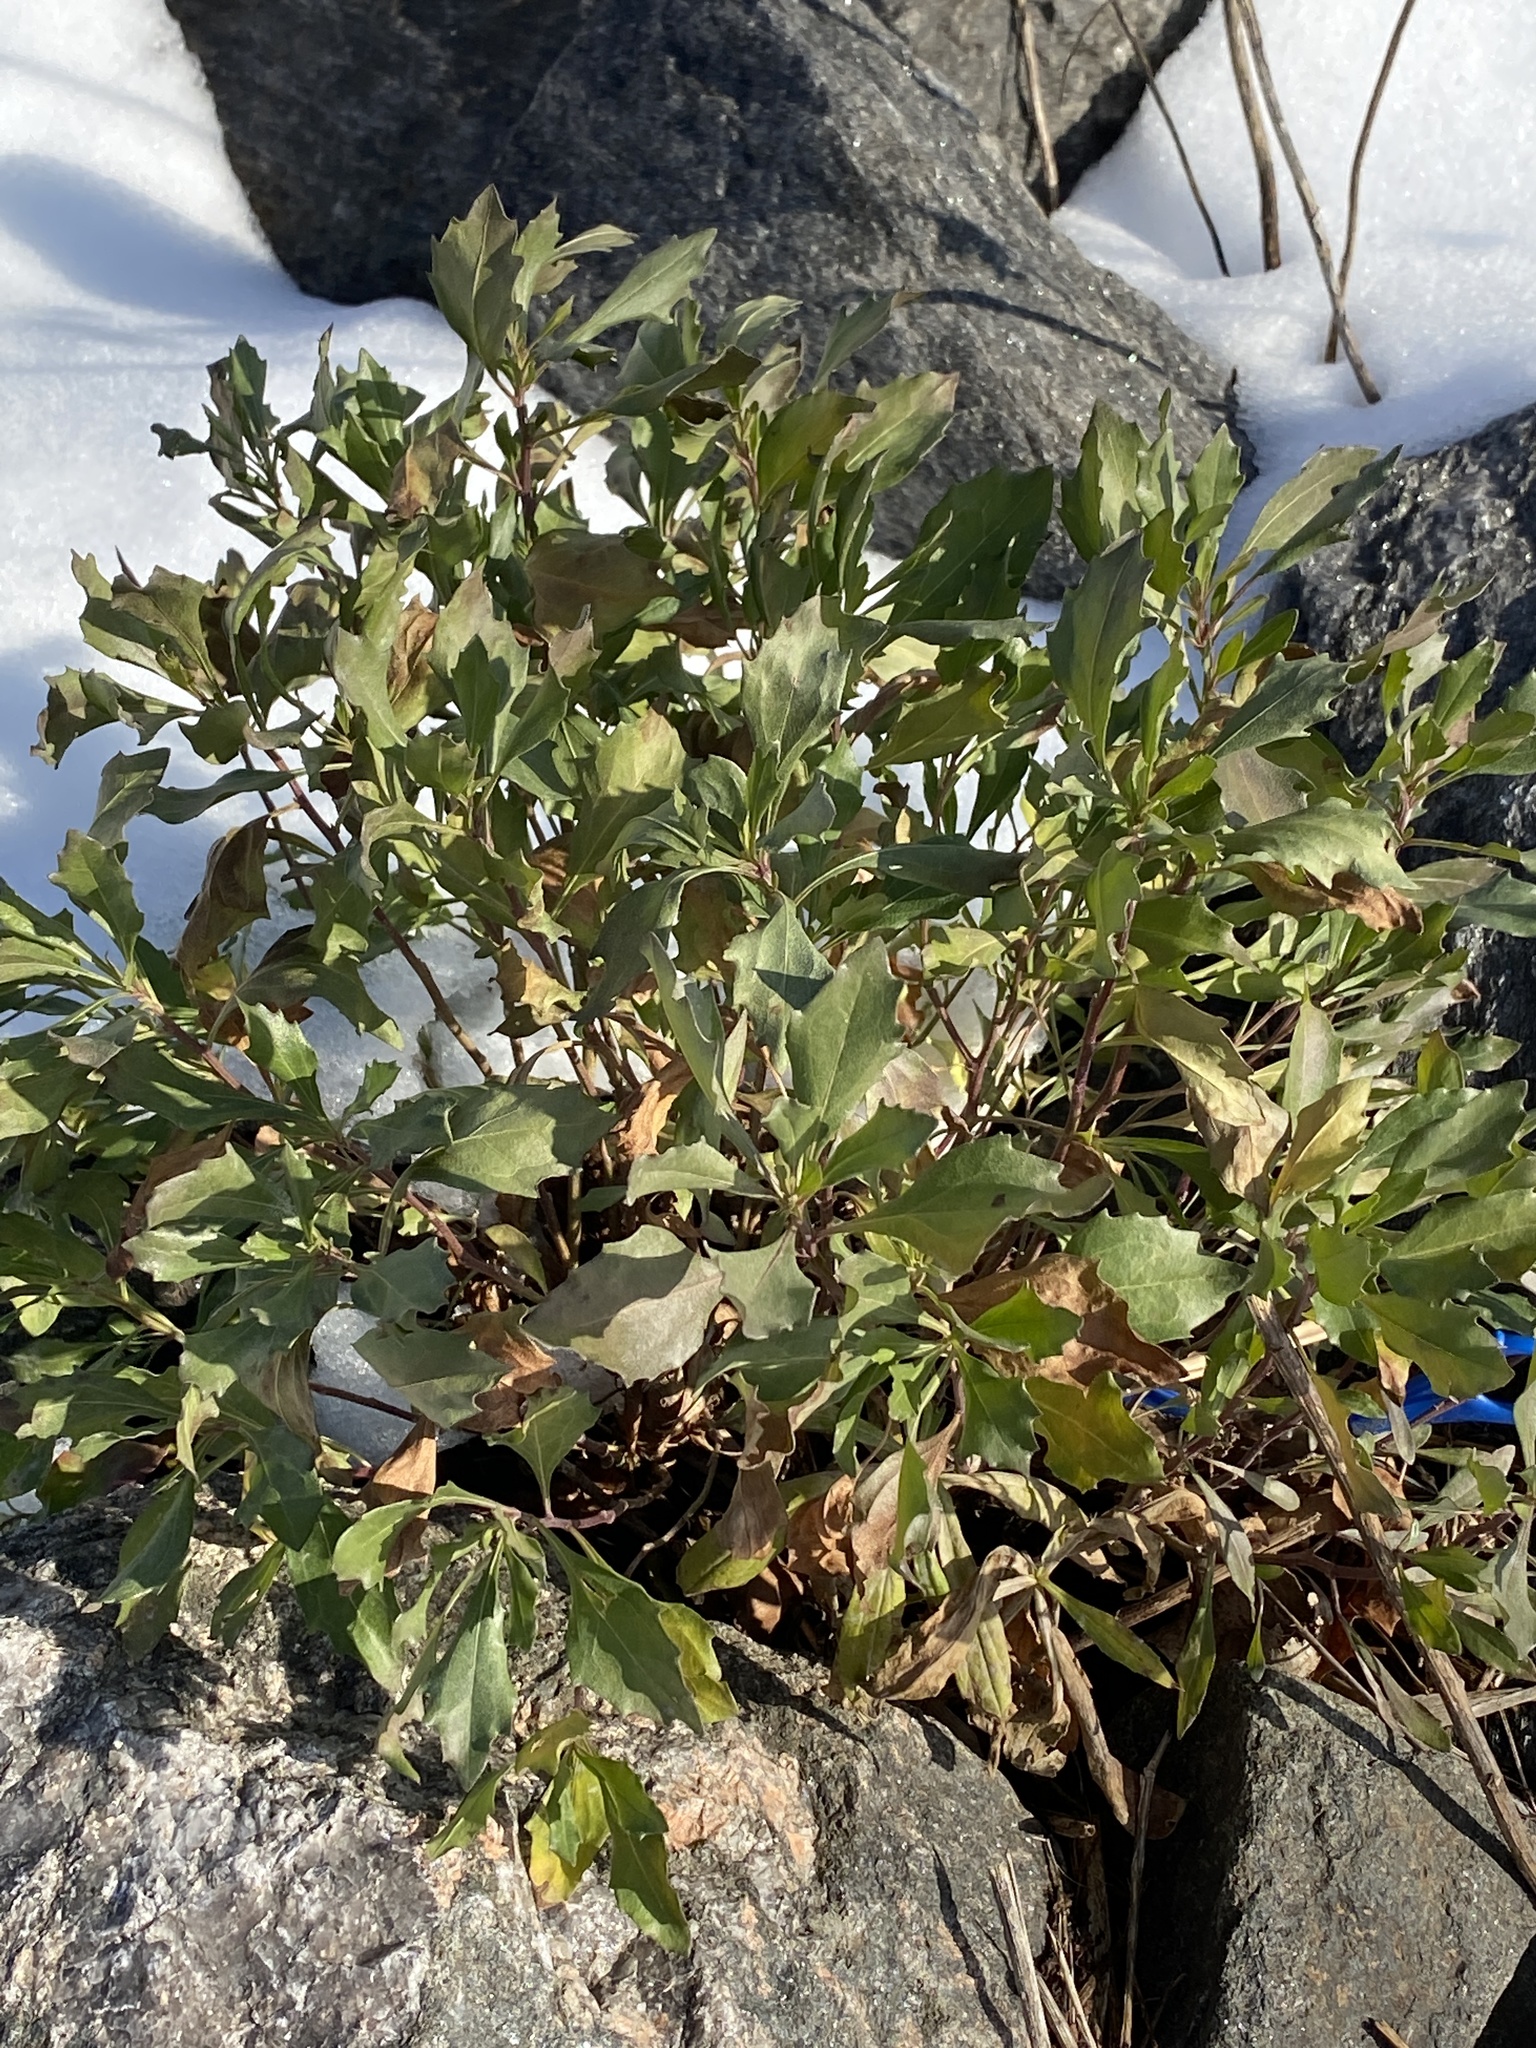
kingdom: Plantae
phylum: Tracheophyta
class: Magnoliopsida
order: Asterales
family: Asteraceae
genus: Baccharis
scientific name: Baccharis halimifolia
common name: Eastern baccharis
